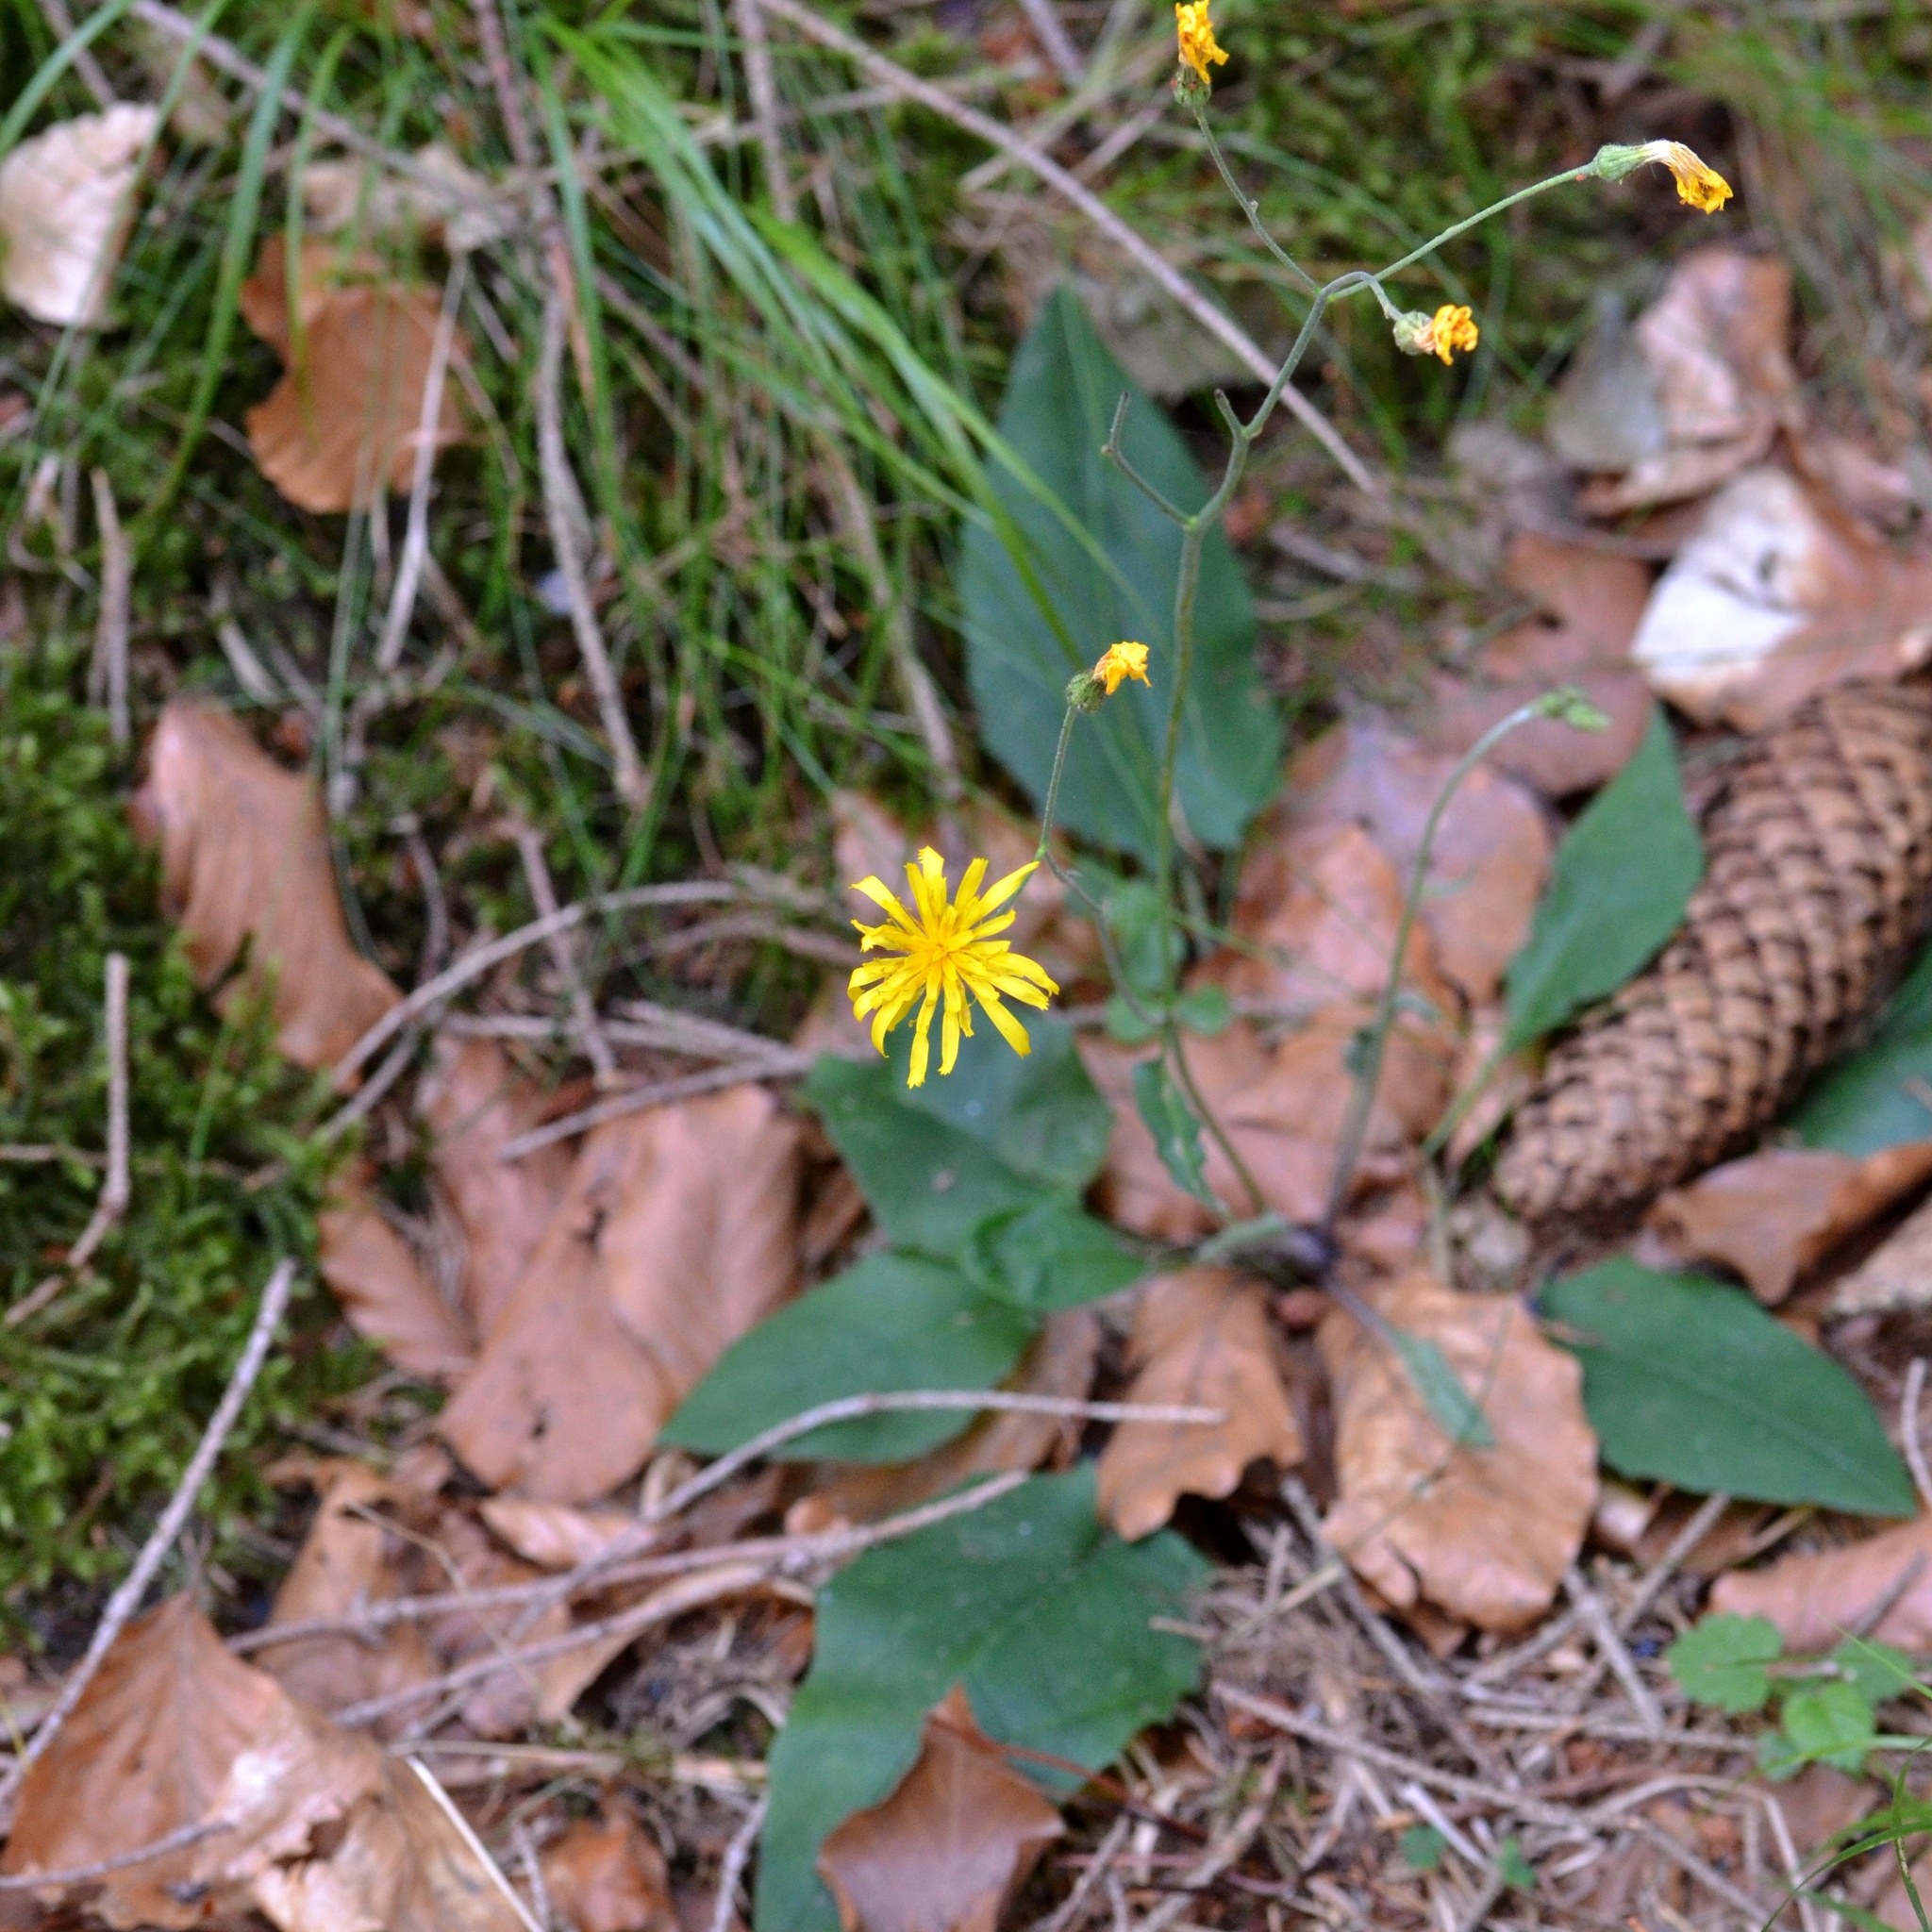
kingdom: Plantae
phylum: Tracheophyta
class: Magnoliopsida
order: Asterales
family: Asteraceae
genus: Hieracium
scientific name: Hieracium murorum
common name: Wall hawkweed
